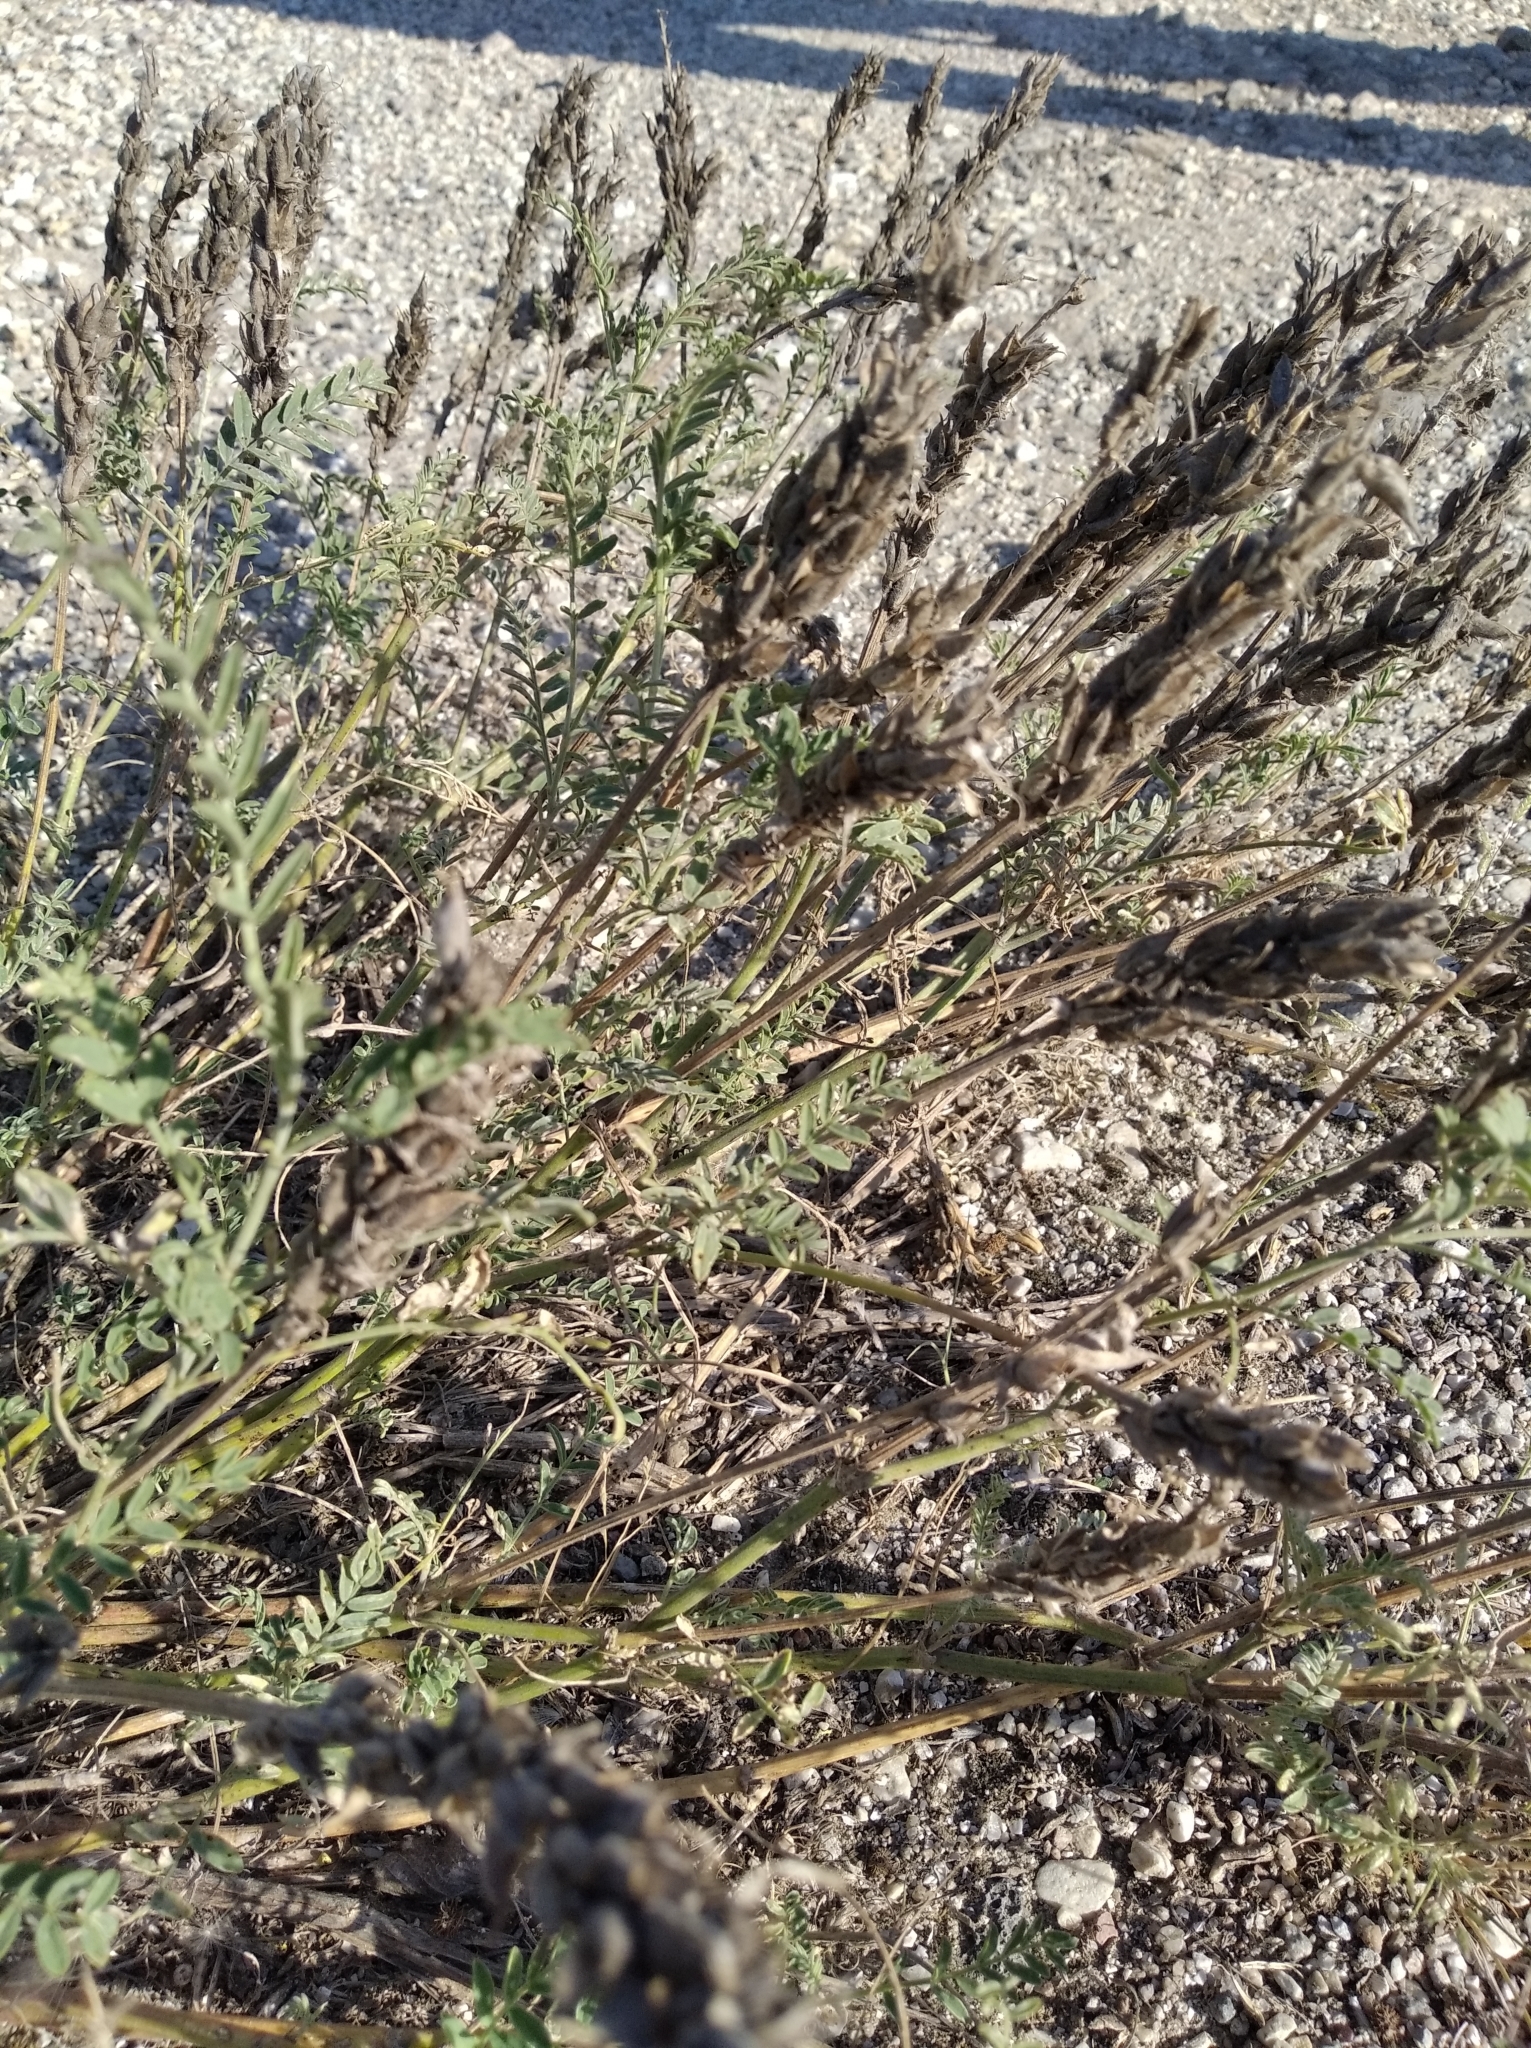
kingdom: Plantae
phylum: Tracheophyta
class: Magnoliopsida
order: Fabales
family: Fabaceae
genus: Astragalus
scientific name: Astragalus onobrychis
